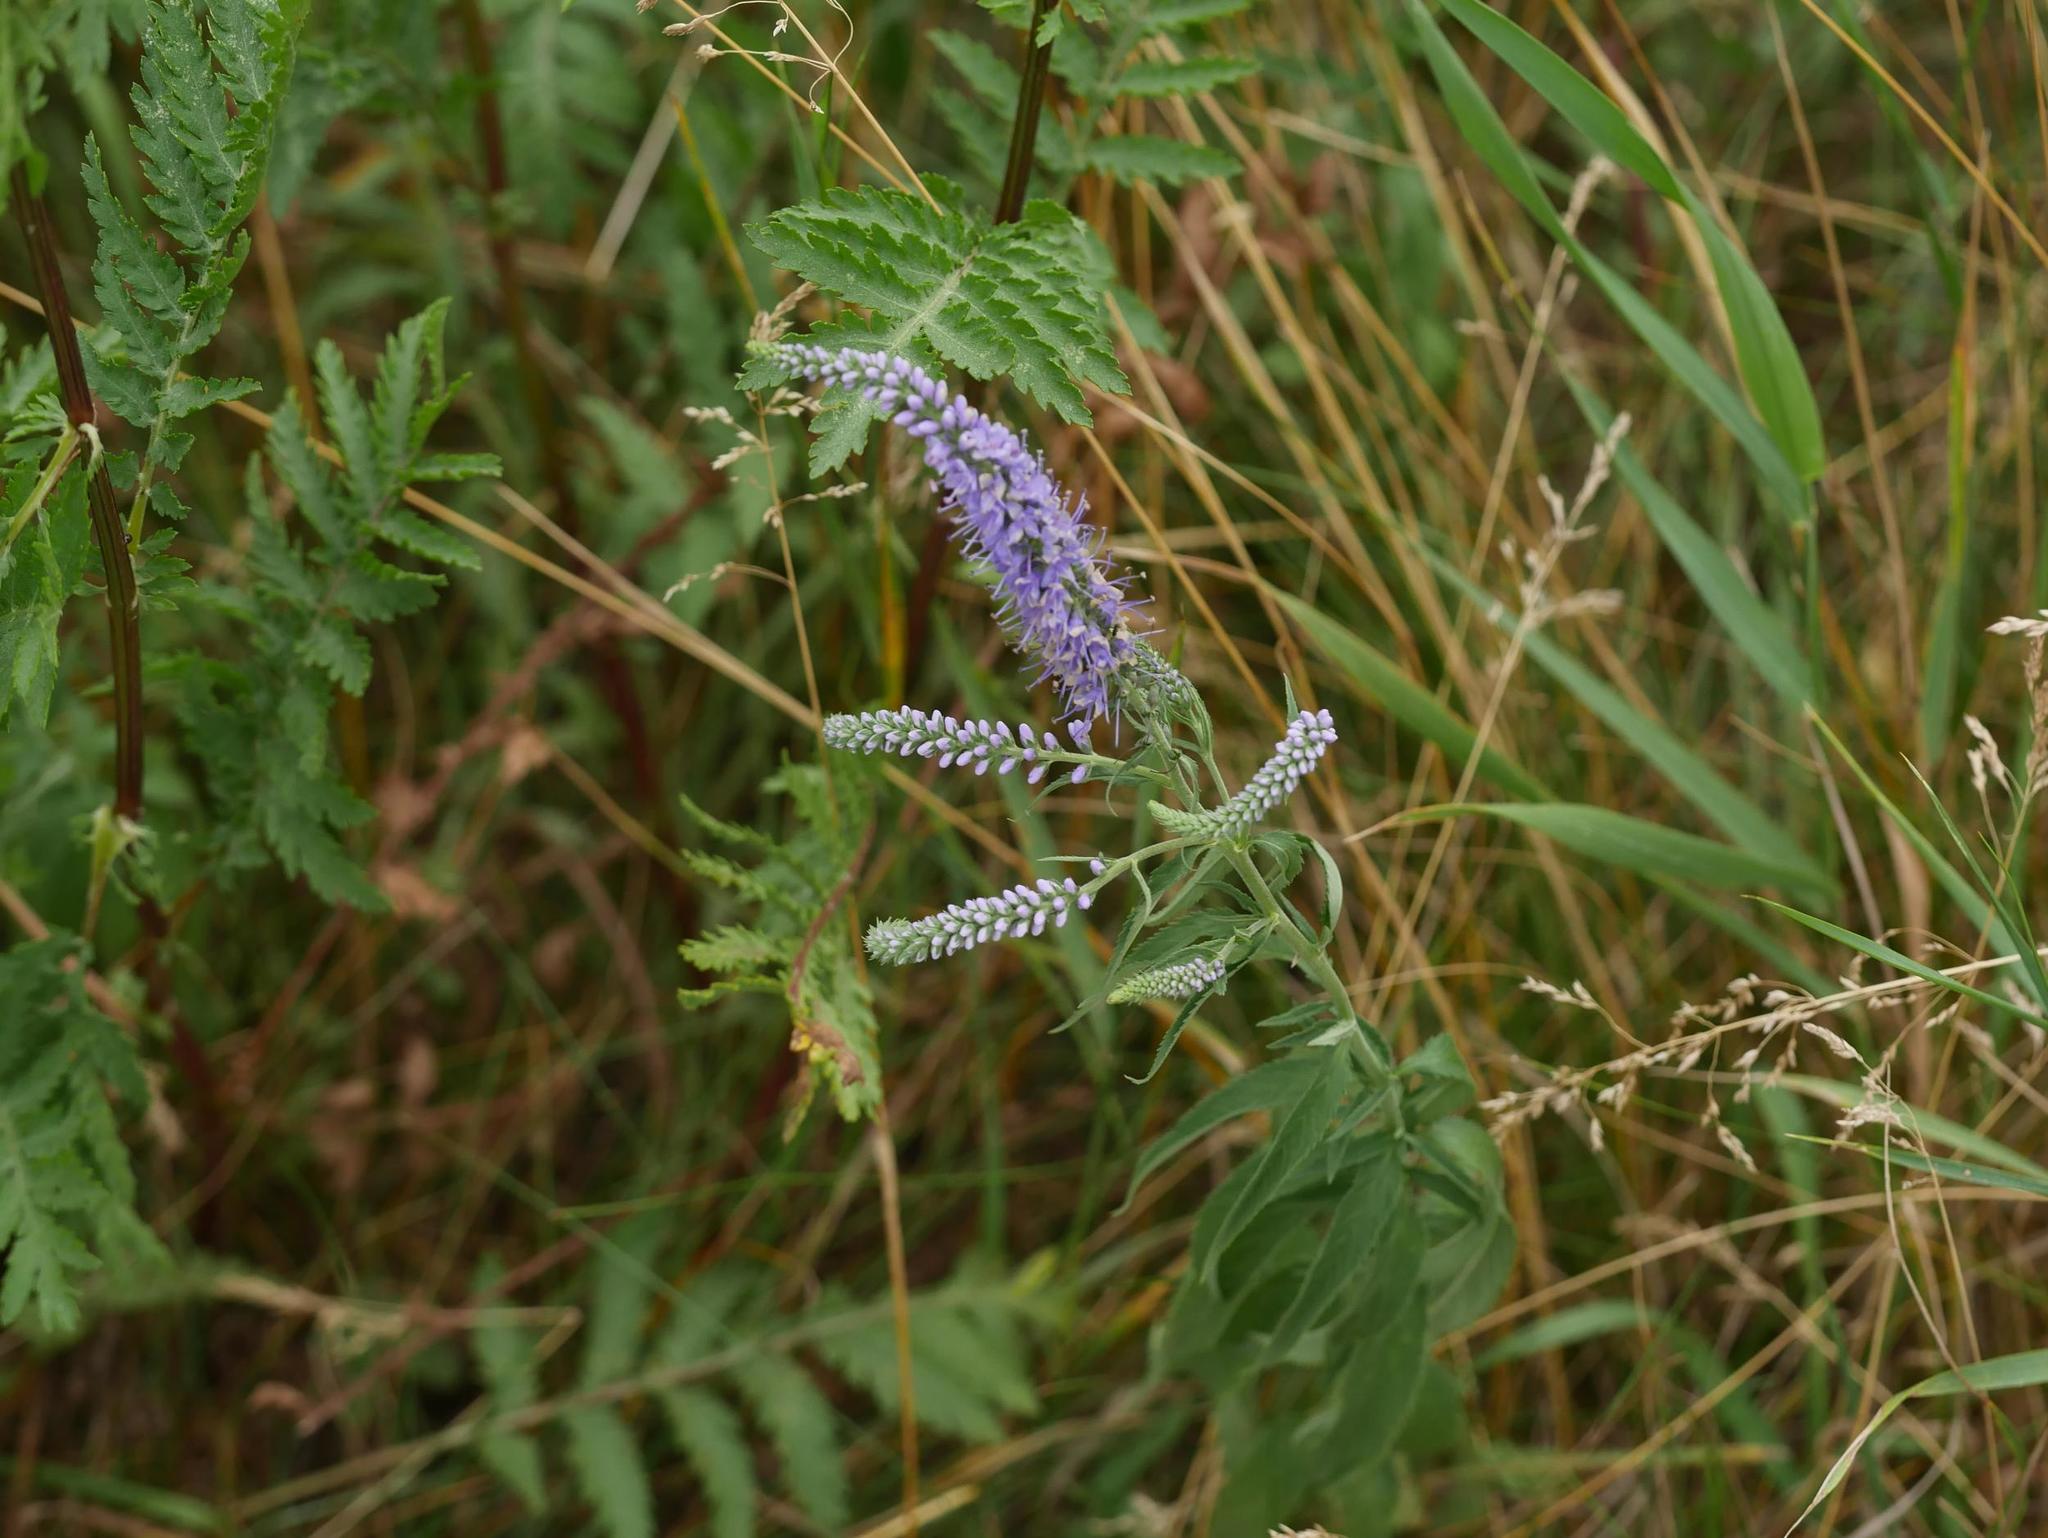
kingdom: Plantae
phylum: Tracheophyta
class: Magnoliopsida
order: Lamiales
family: Plantaginaceae
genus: Veronica
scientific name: Veronica longifolia
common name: Garden speedwell
